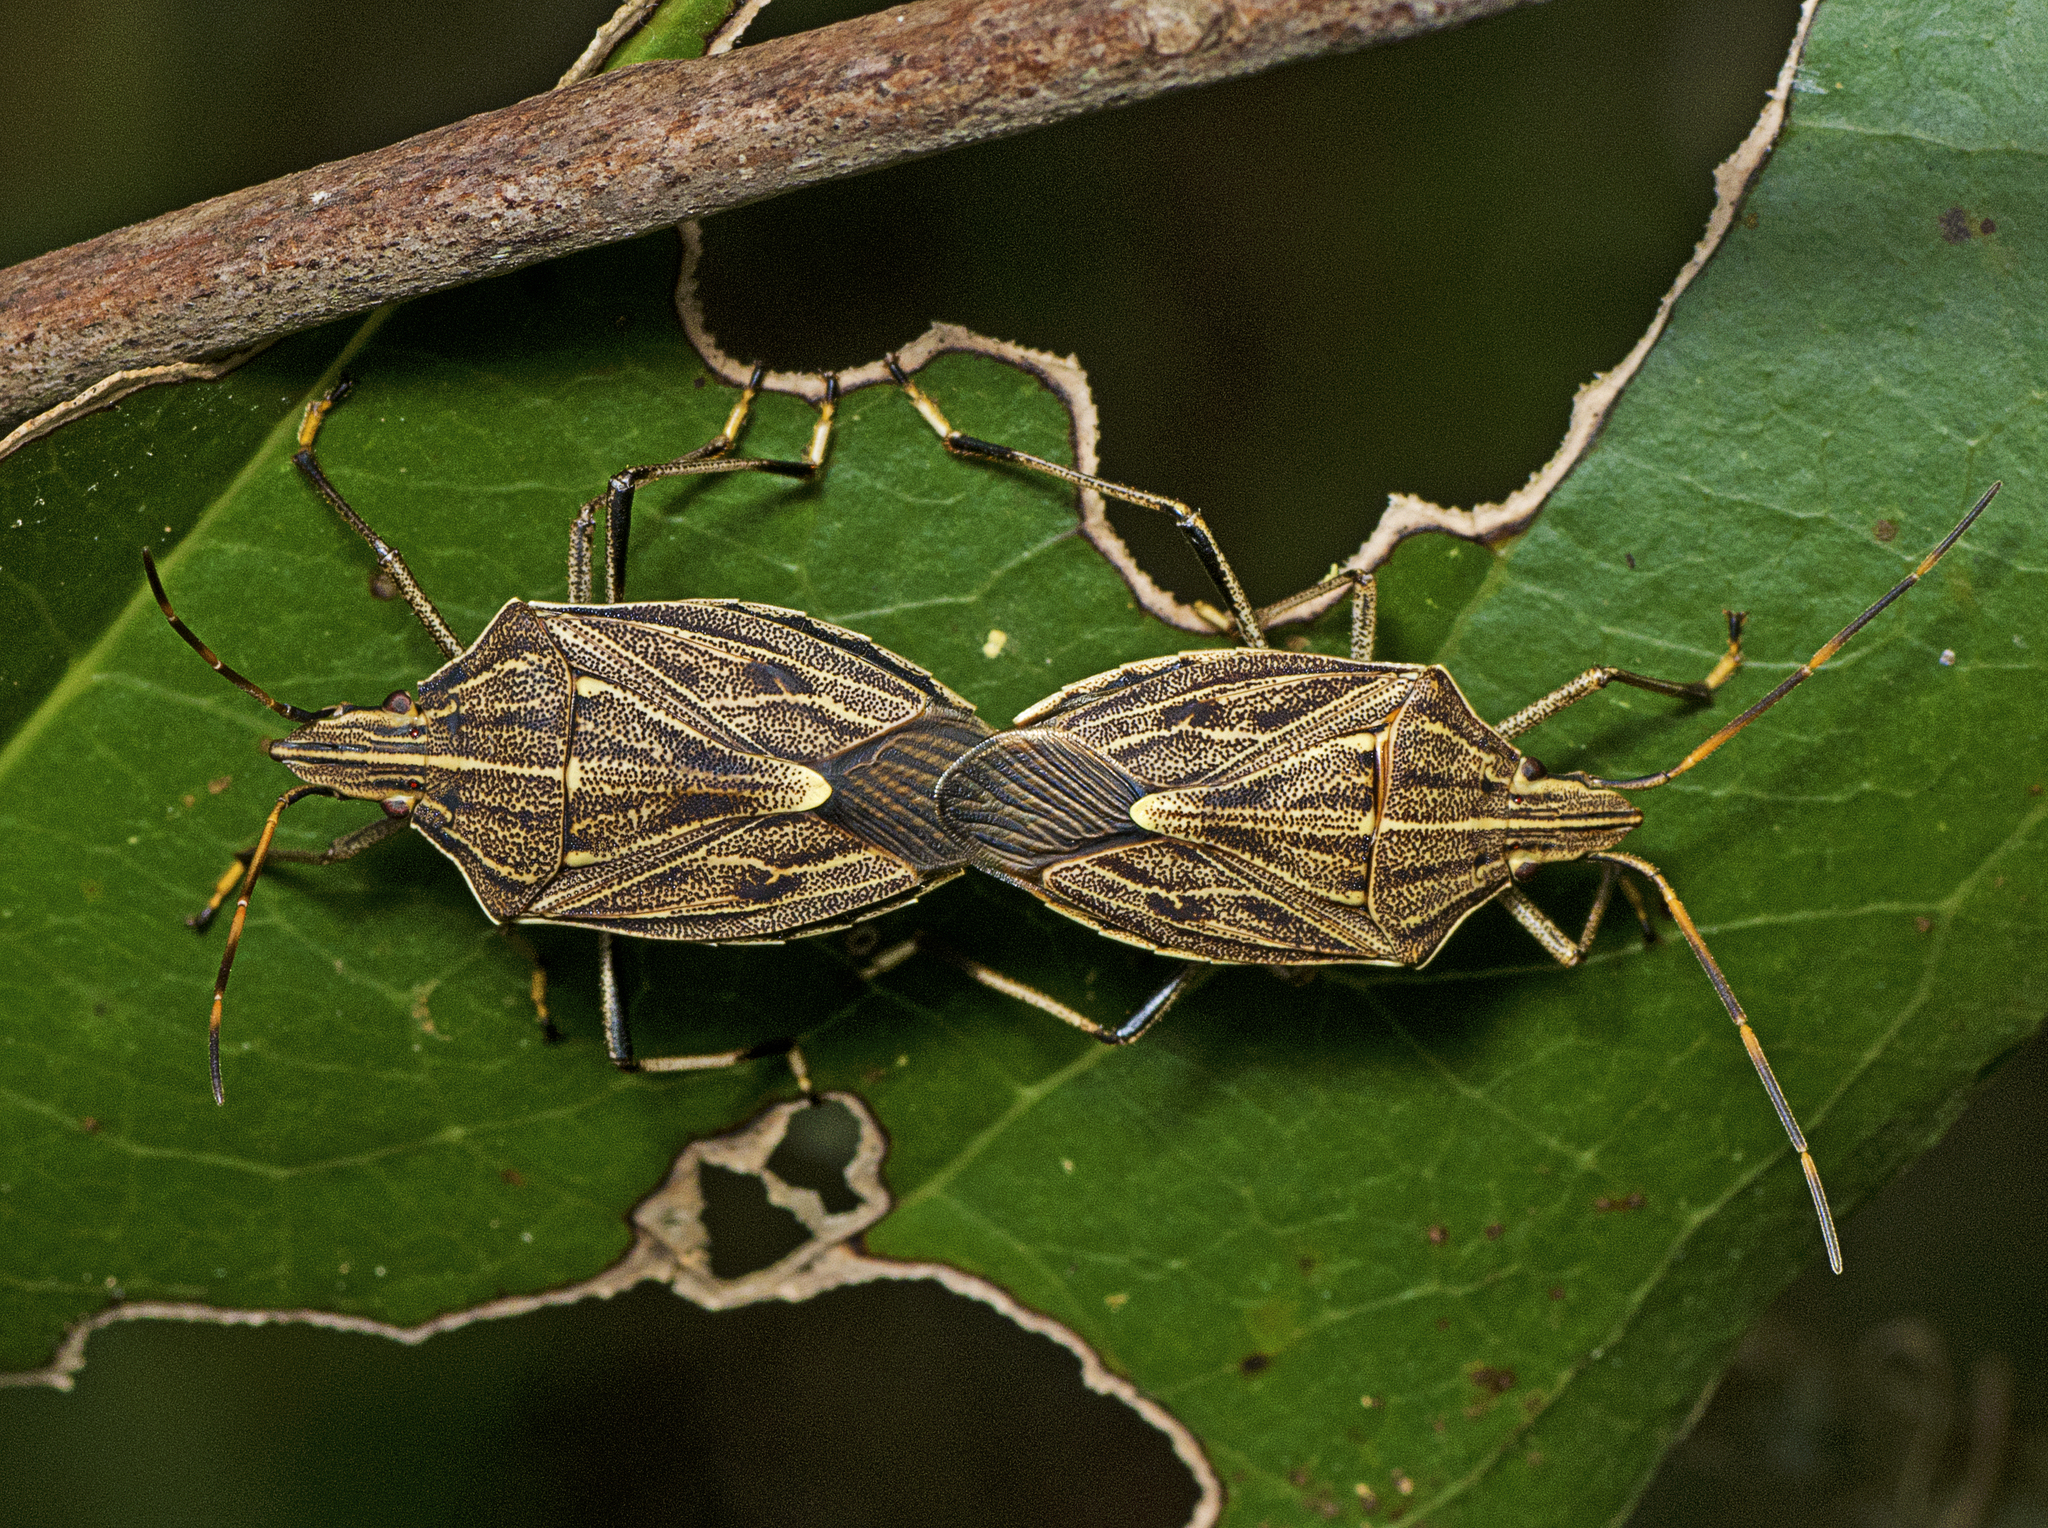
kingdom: Animalia
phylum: Arthropoda
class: Insecta
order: Hemiptera
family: Pentatomidae
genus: Poecilometis
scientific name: Poecilometis
